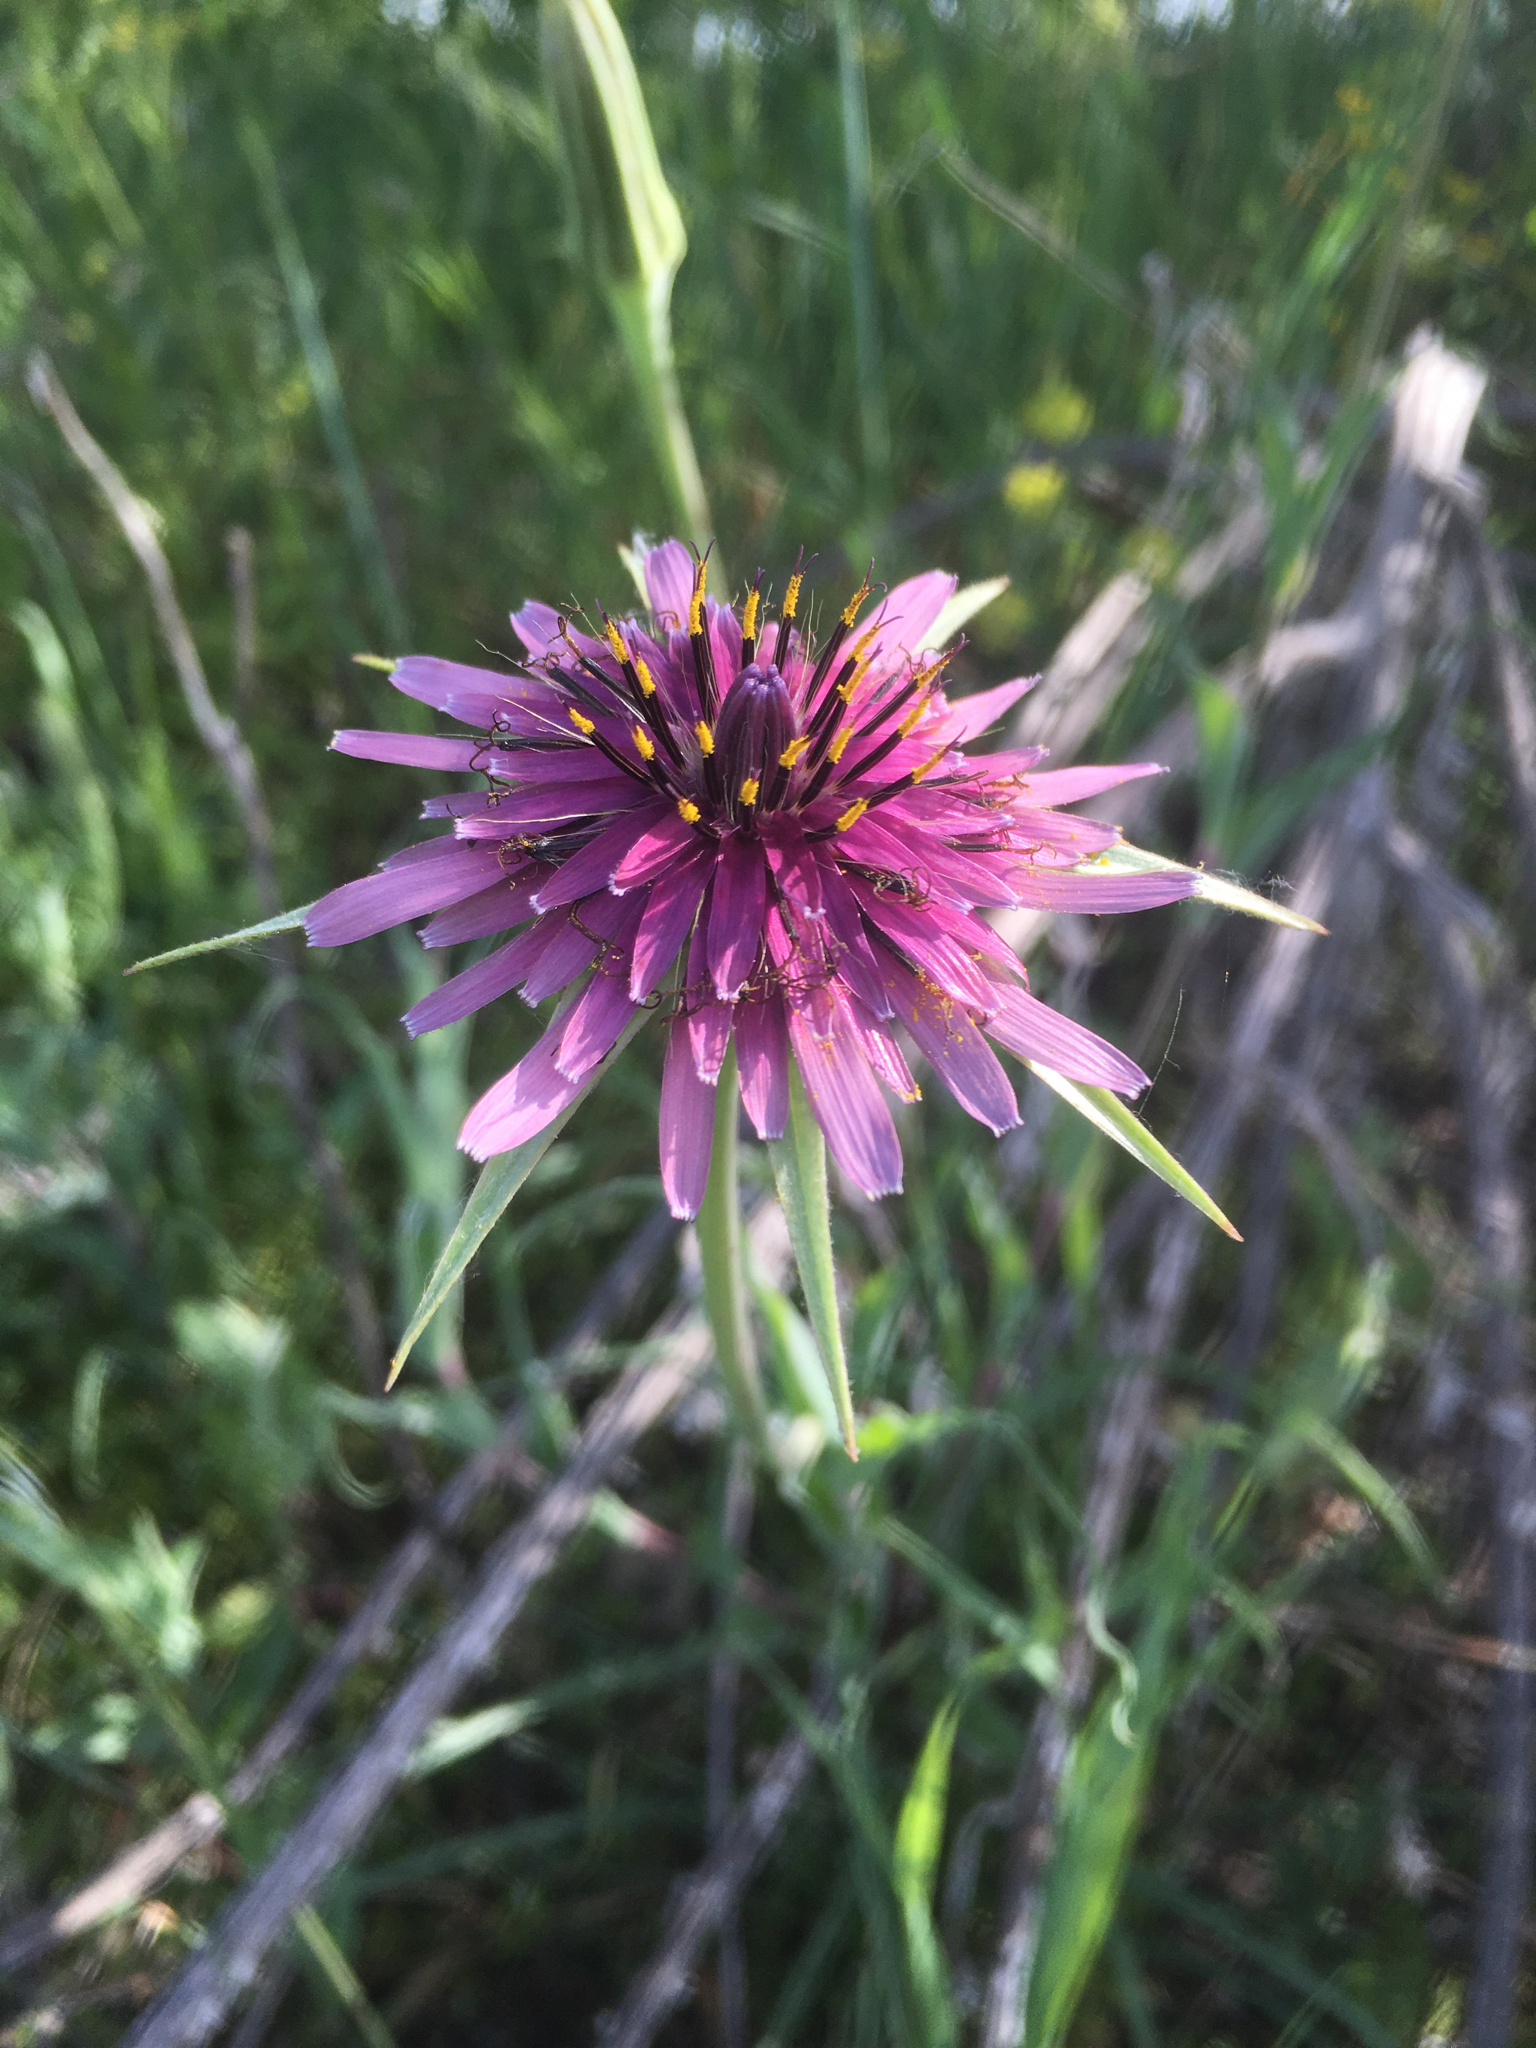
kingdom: Plantae
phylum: Tracheophyta
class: Magnoliopsida
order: Asterales
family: Asteraceae
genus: Tragopogon
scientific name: Tragopogon porrifolius
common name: Salsify
